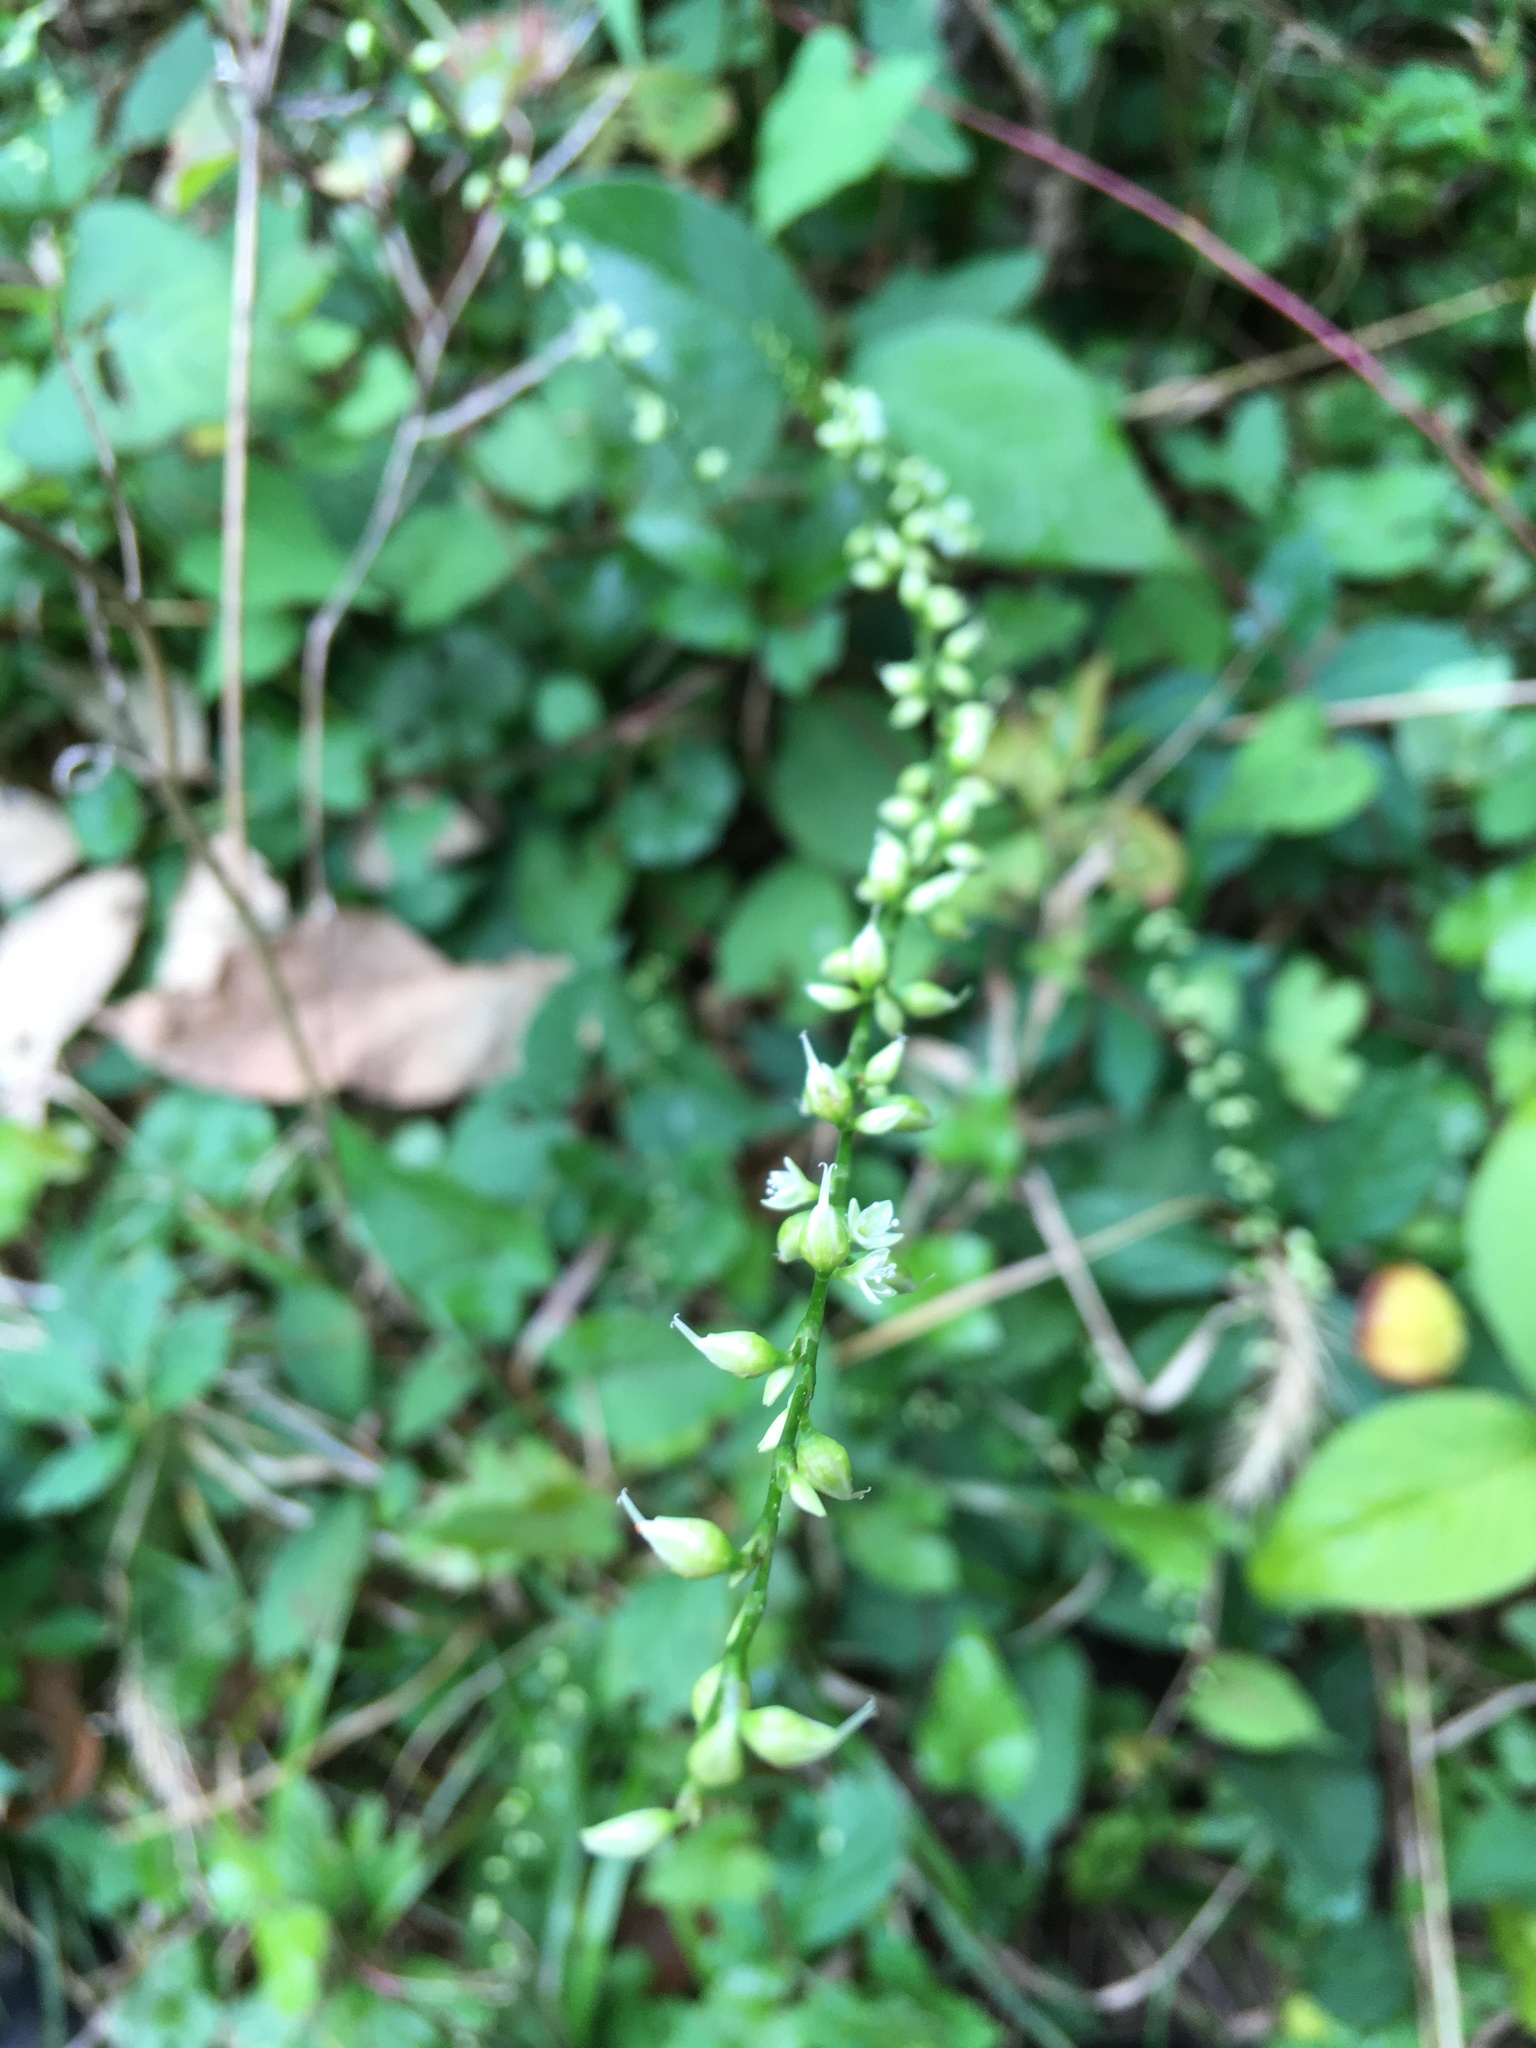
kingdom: Plantae
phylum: Tracheophyta
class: Magnoliopsida
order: Caryophyllales
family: Polygonaceae
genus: Persicaria
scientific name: Persicaria virginiana
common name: Jumpseed
